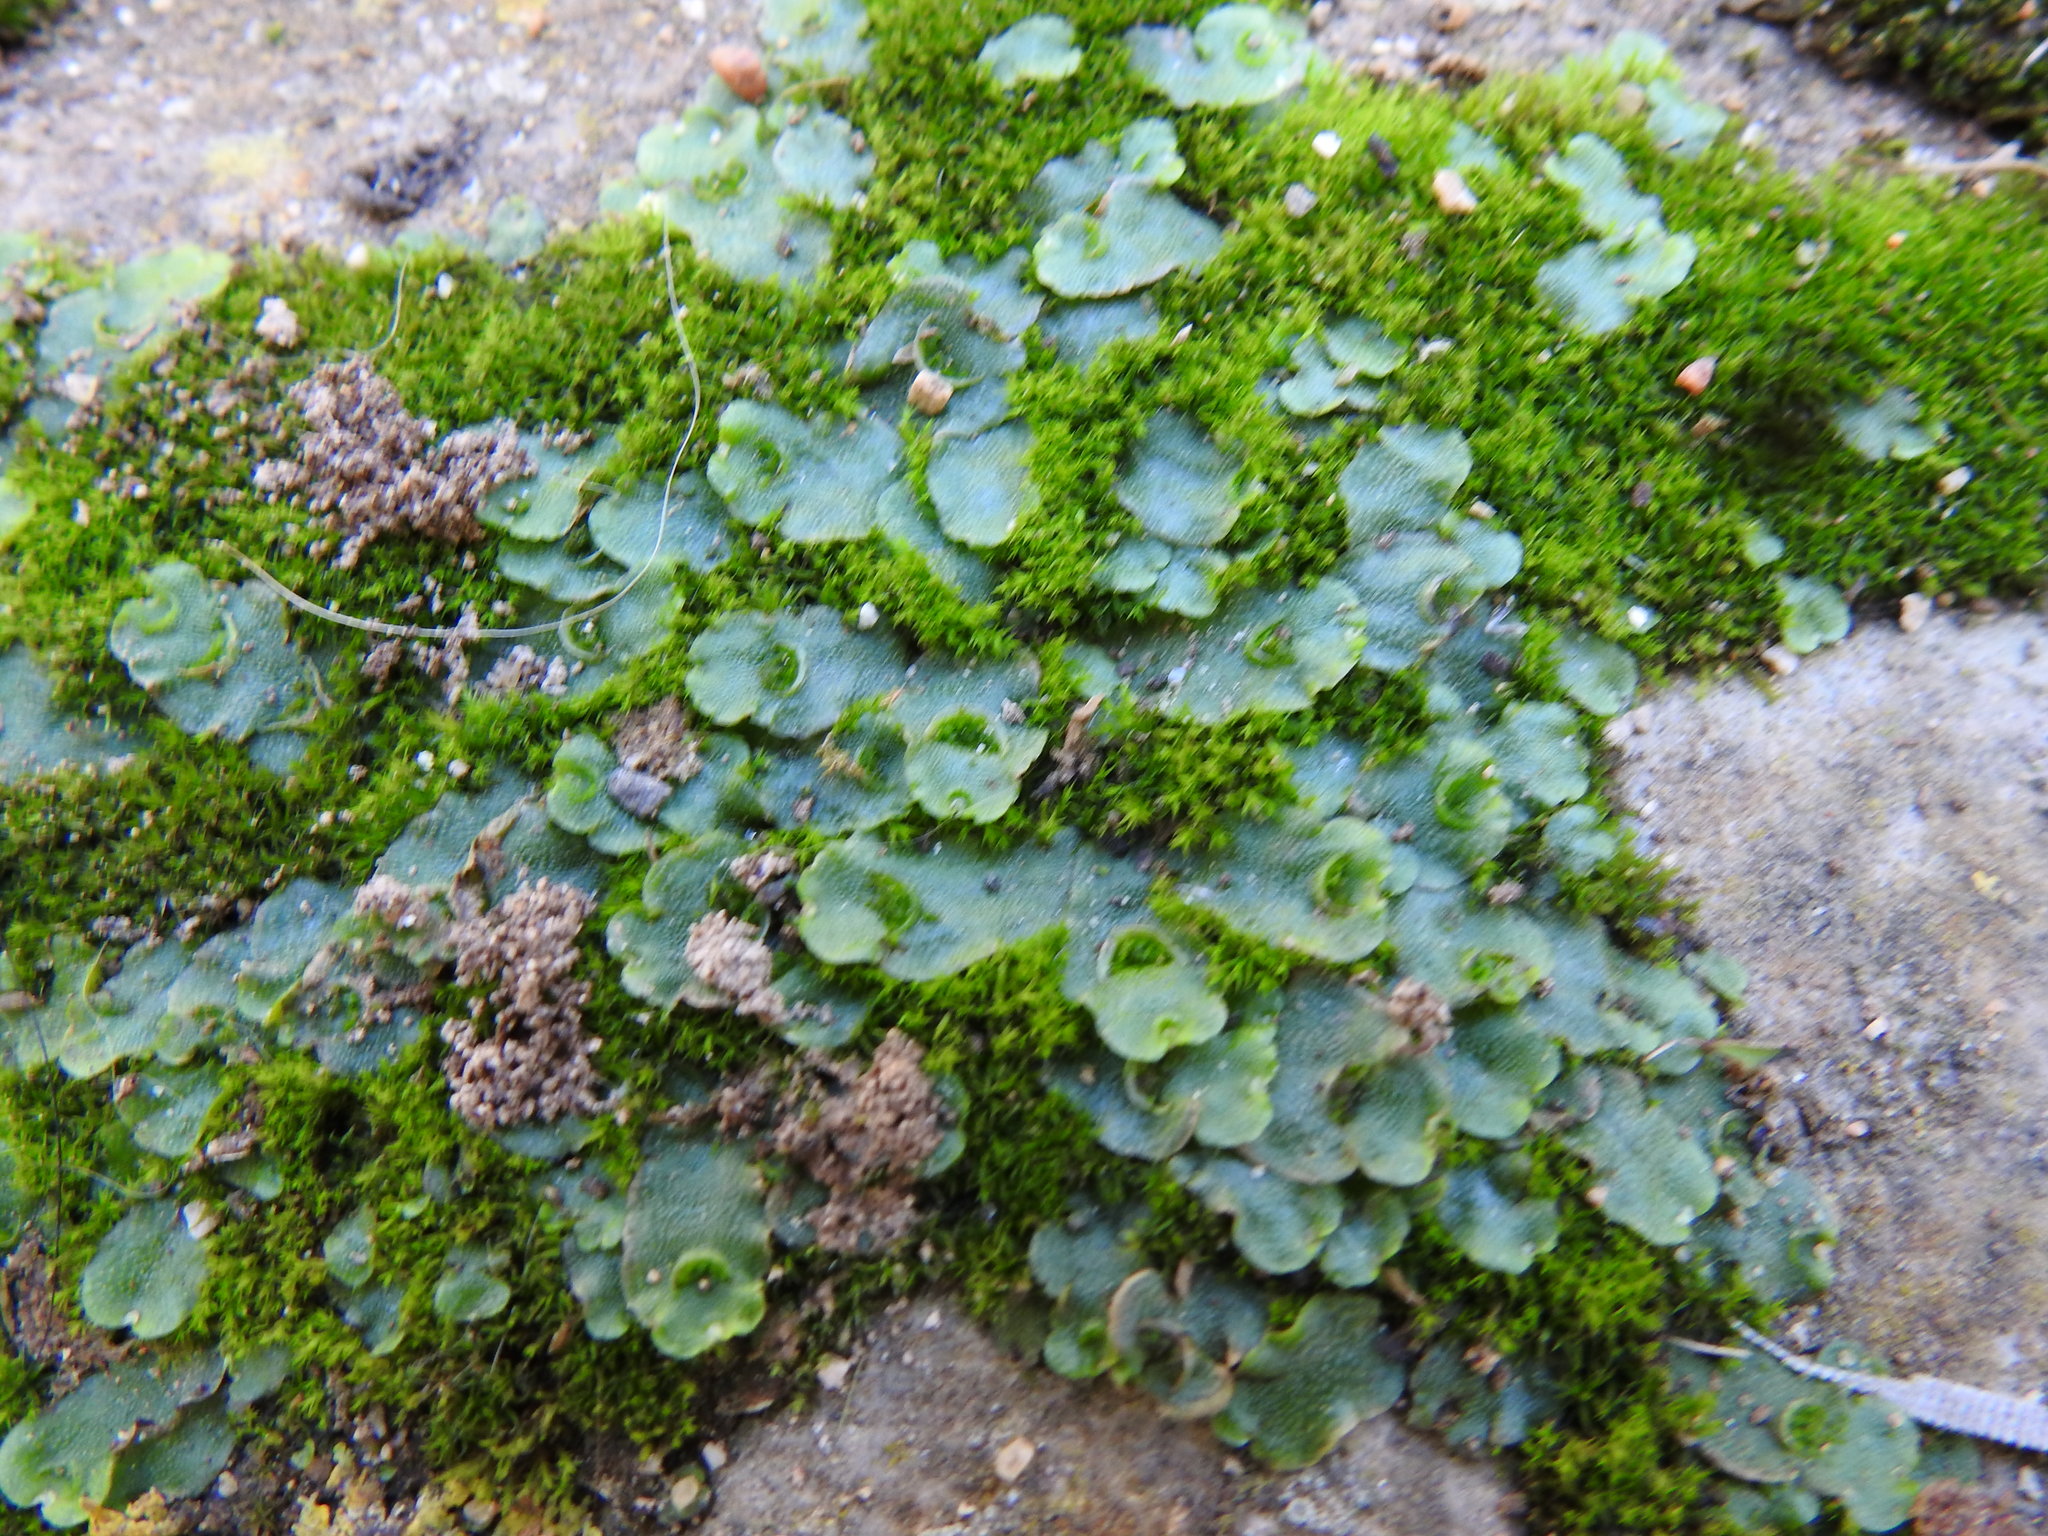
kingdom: Plantae
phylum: Marchantiophyta
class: Marchantiopsida
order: Lunulariales
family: Lunulariaceae
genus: Lunularia
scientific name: Lunularia cruciata
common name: Crescent-cup liverwort
